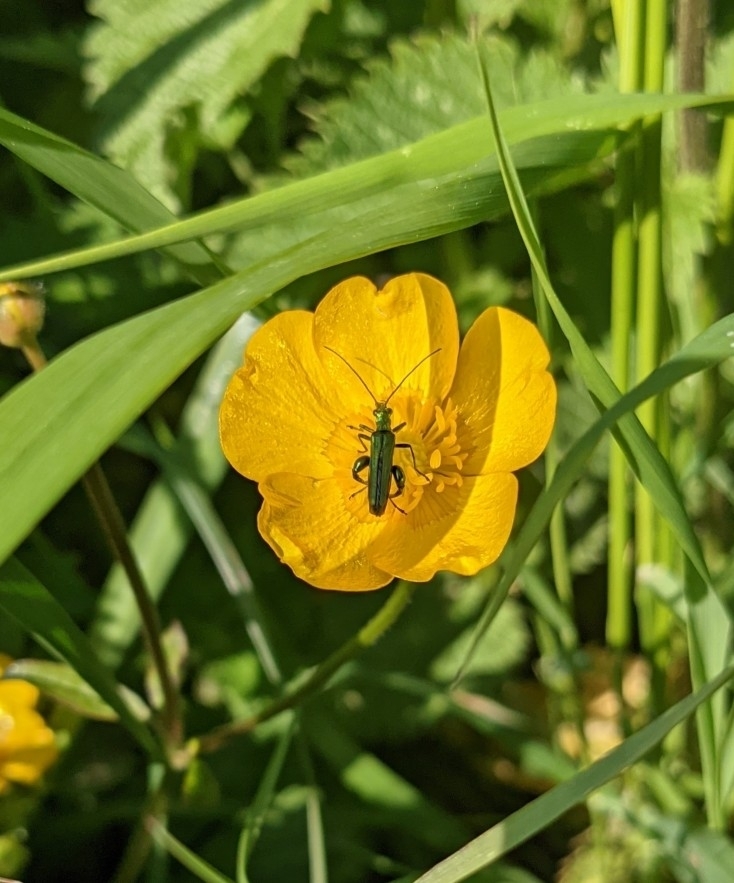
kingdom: Animalia
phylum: Arthropoda
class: Insecta
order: Coleoptera
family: Oedemeridae
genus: Oedemera
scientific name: Oedemera nobilis
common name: Swollen-thighed beetle
